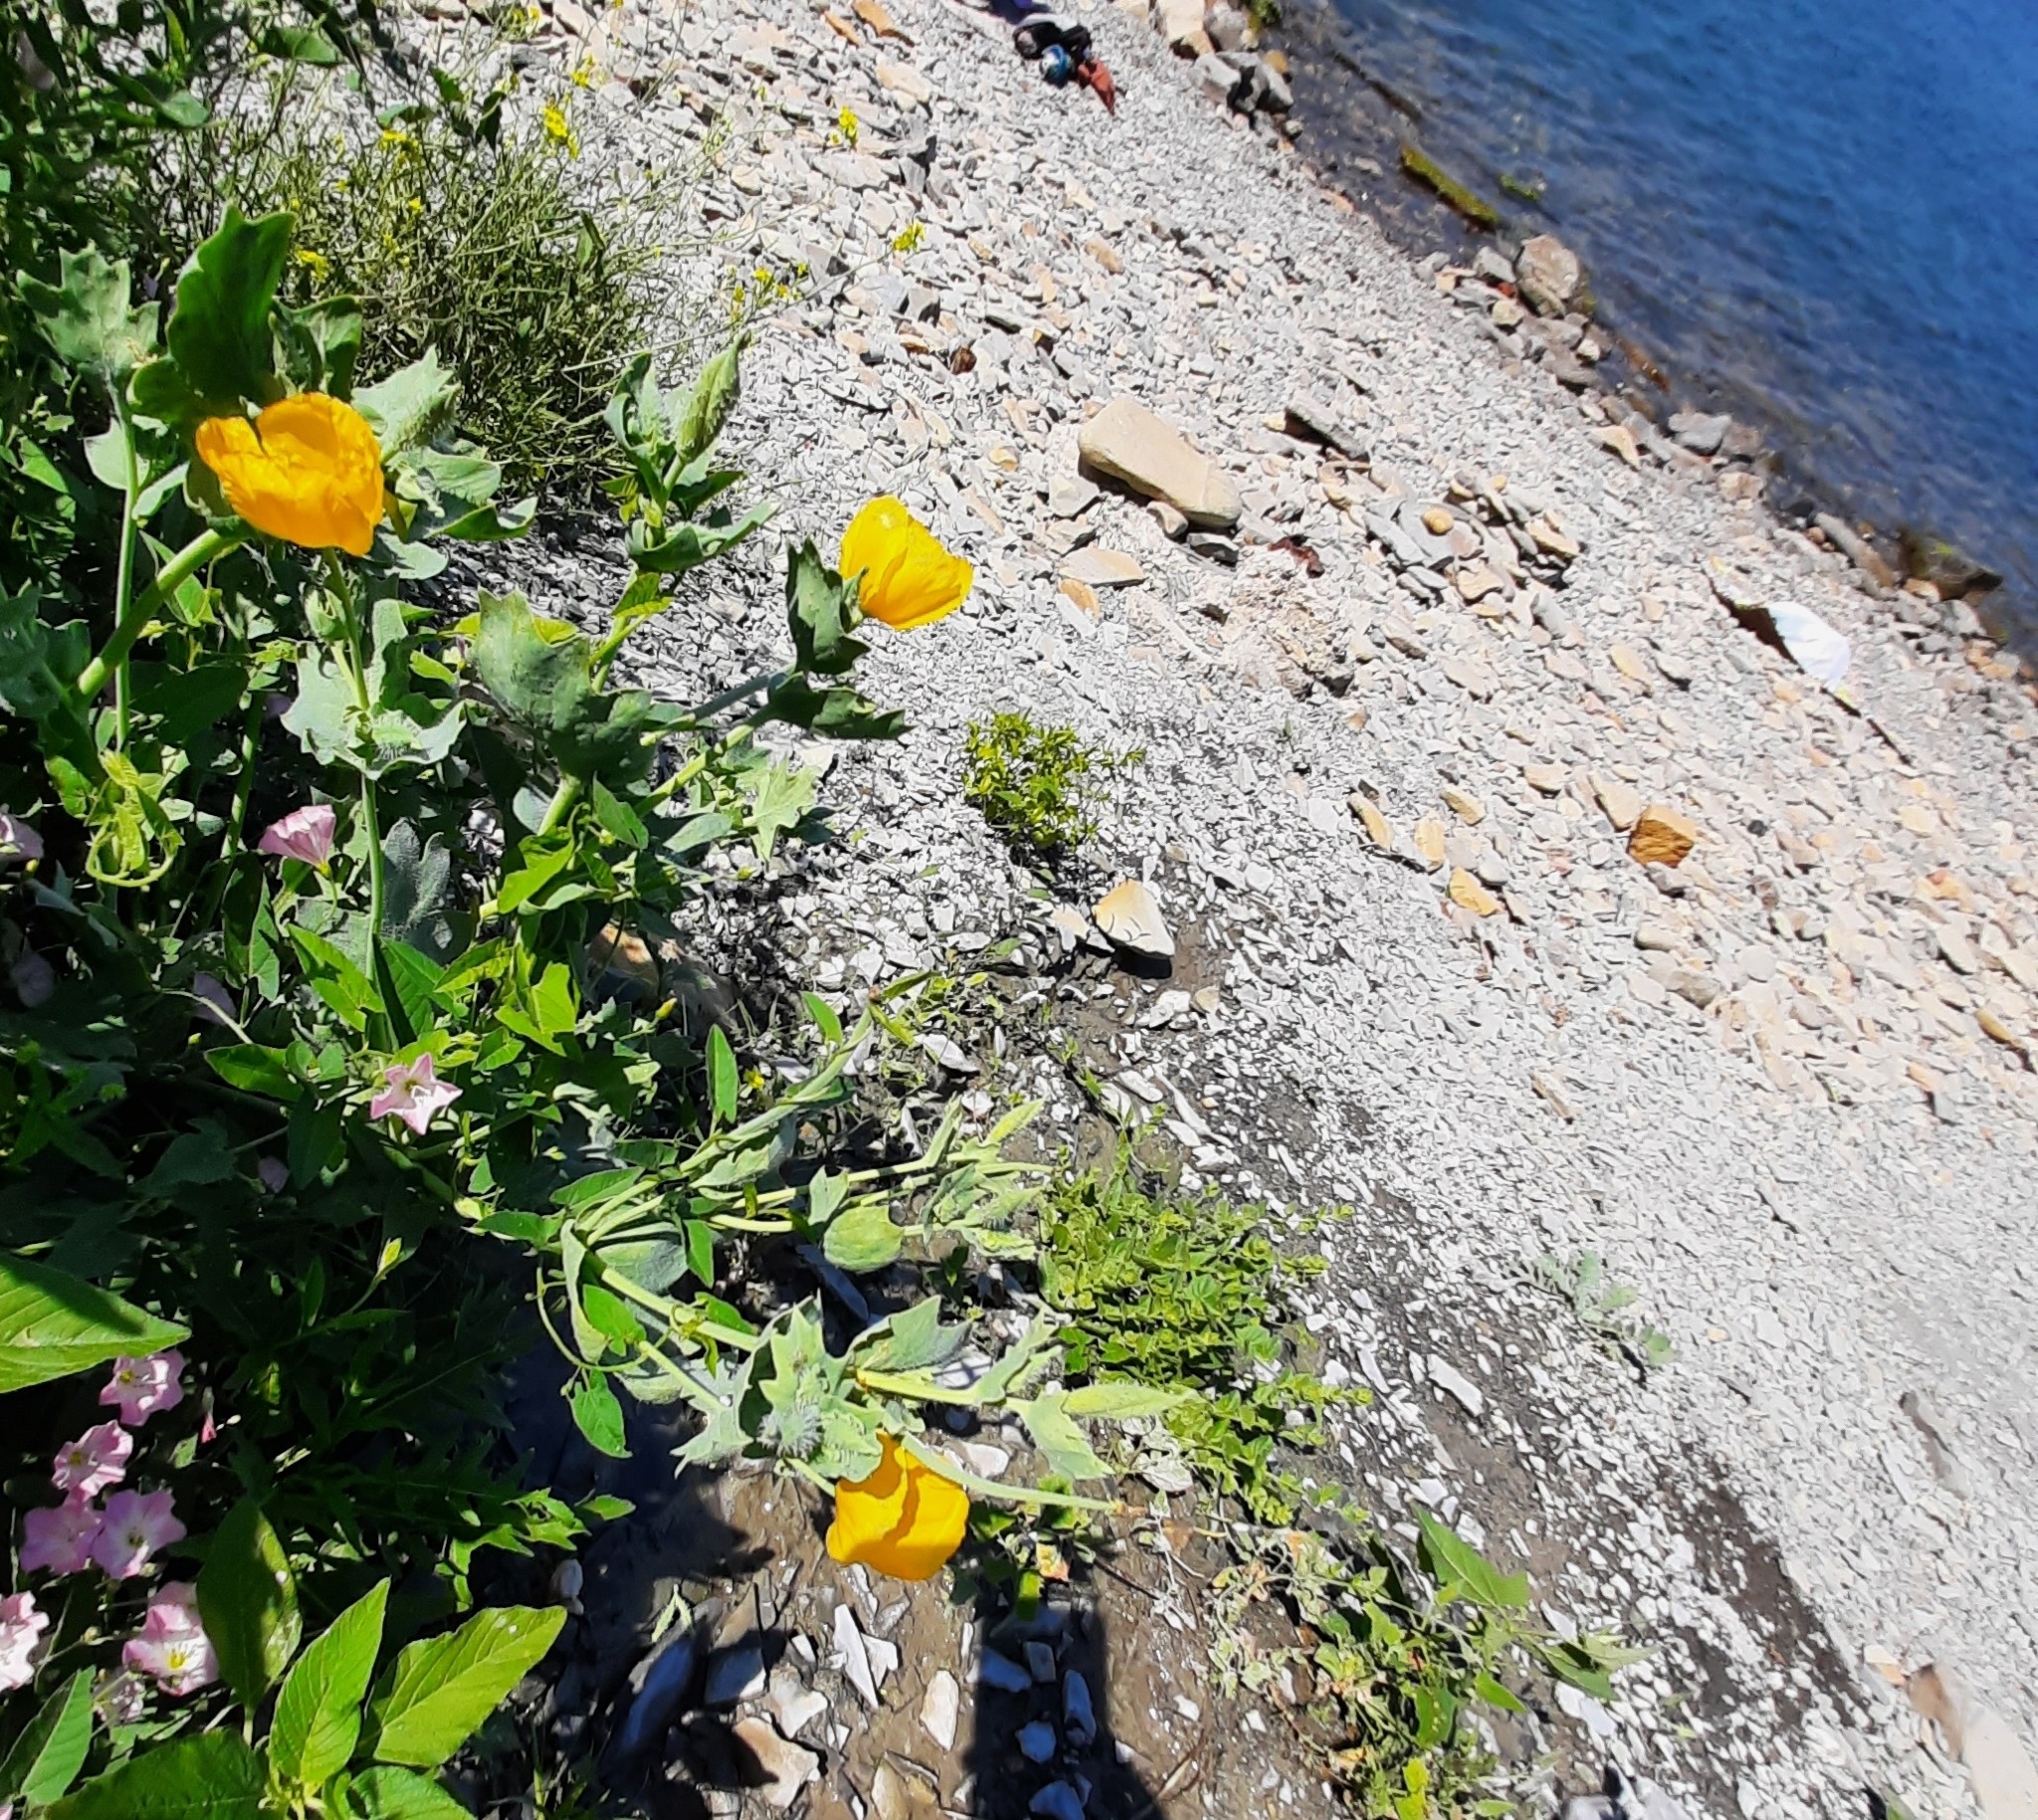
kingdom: Plantae
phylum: Tracheophyta
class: Magnoliopsida
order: Ranunculales
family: Papaveraceae
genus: Glaucium
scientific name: Glaucium flavum
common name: Yellow horned-poppy
